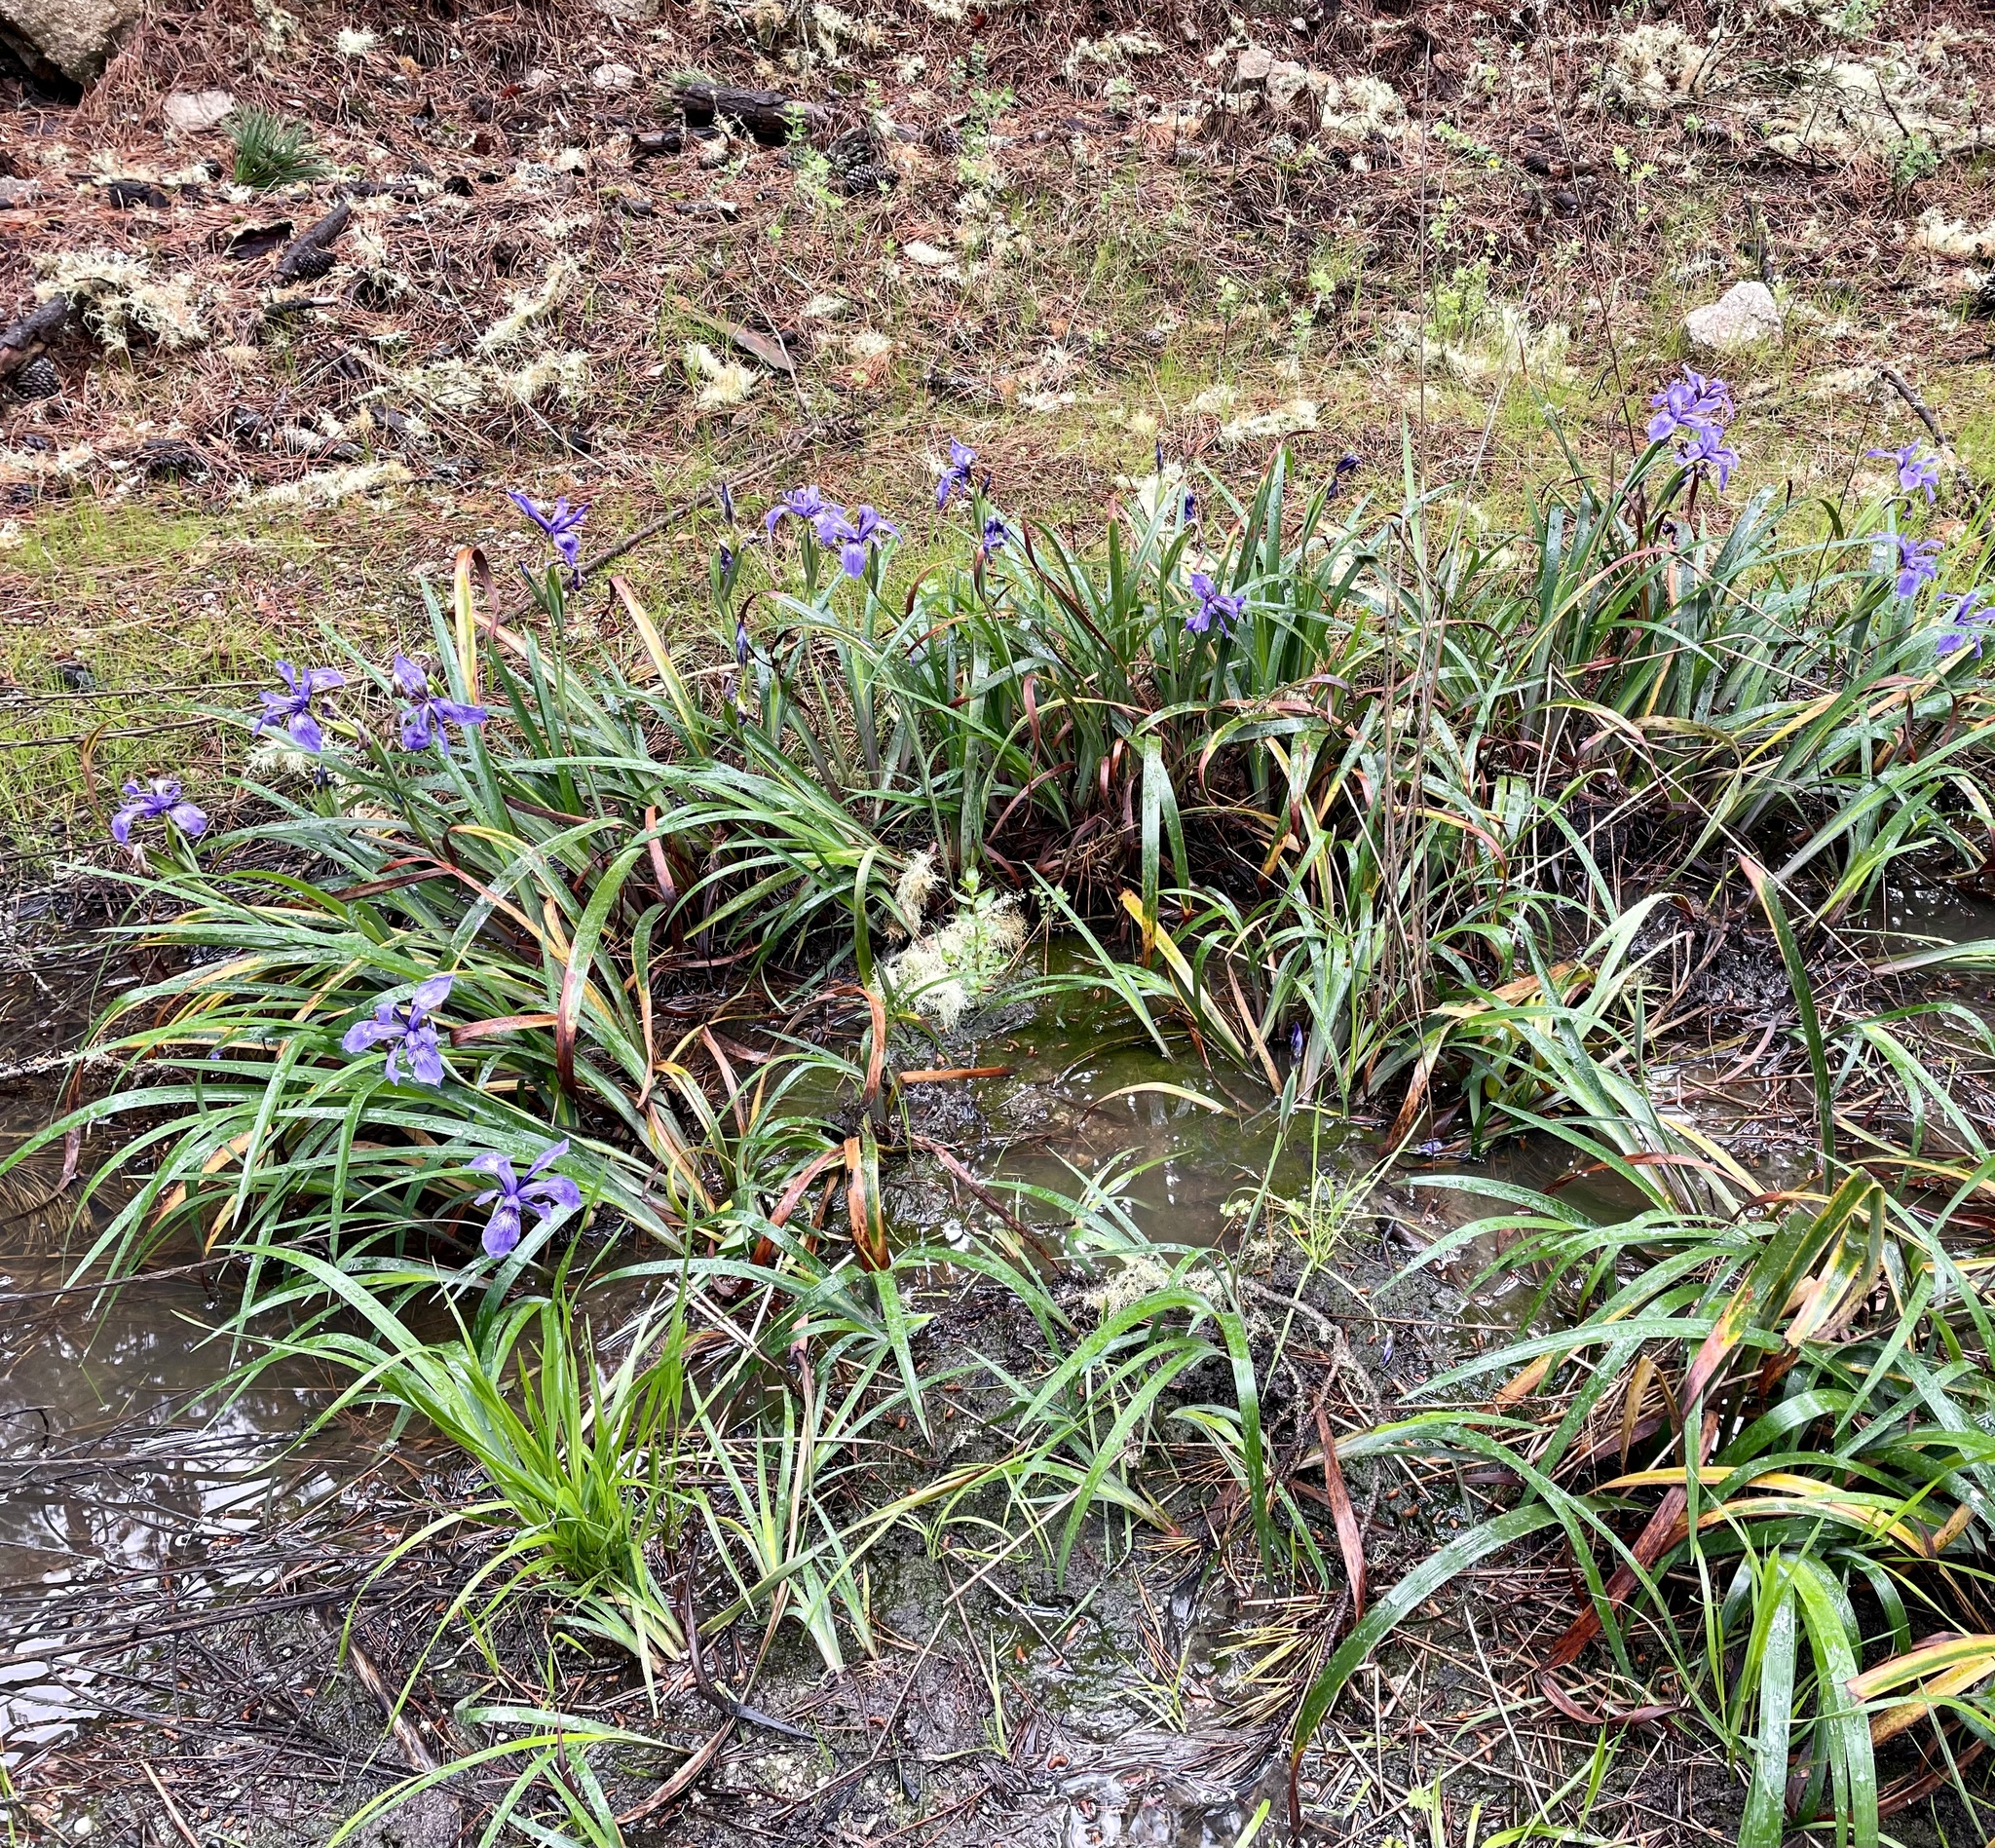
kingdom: Plantae
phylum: Tracheophyta
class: Liliopsida
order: Asparagales
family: Iridaceae
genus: Iris
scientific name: Iris douglasiana
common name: Marin iris
